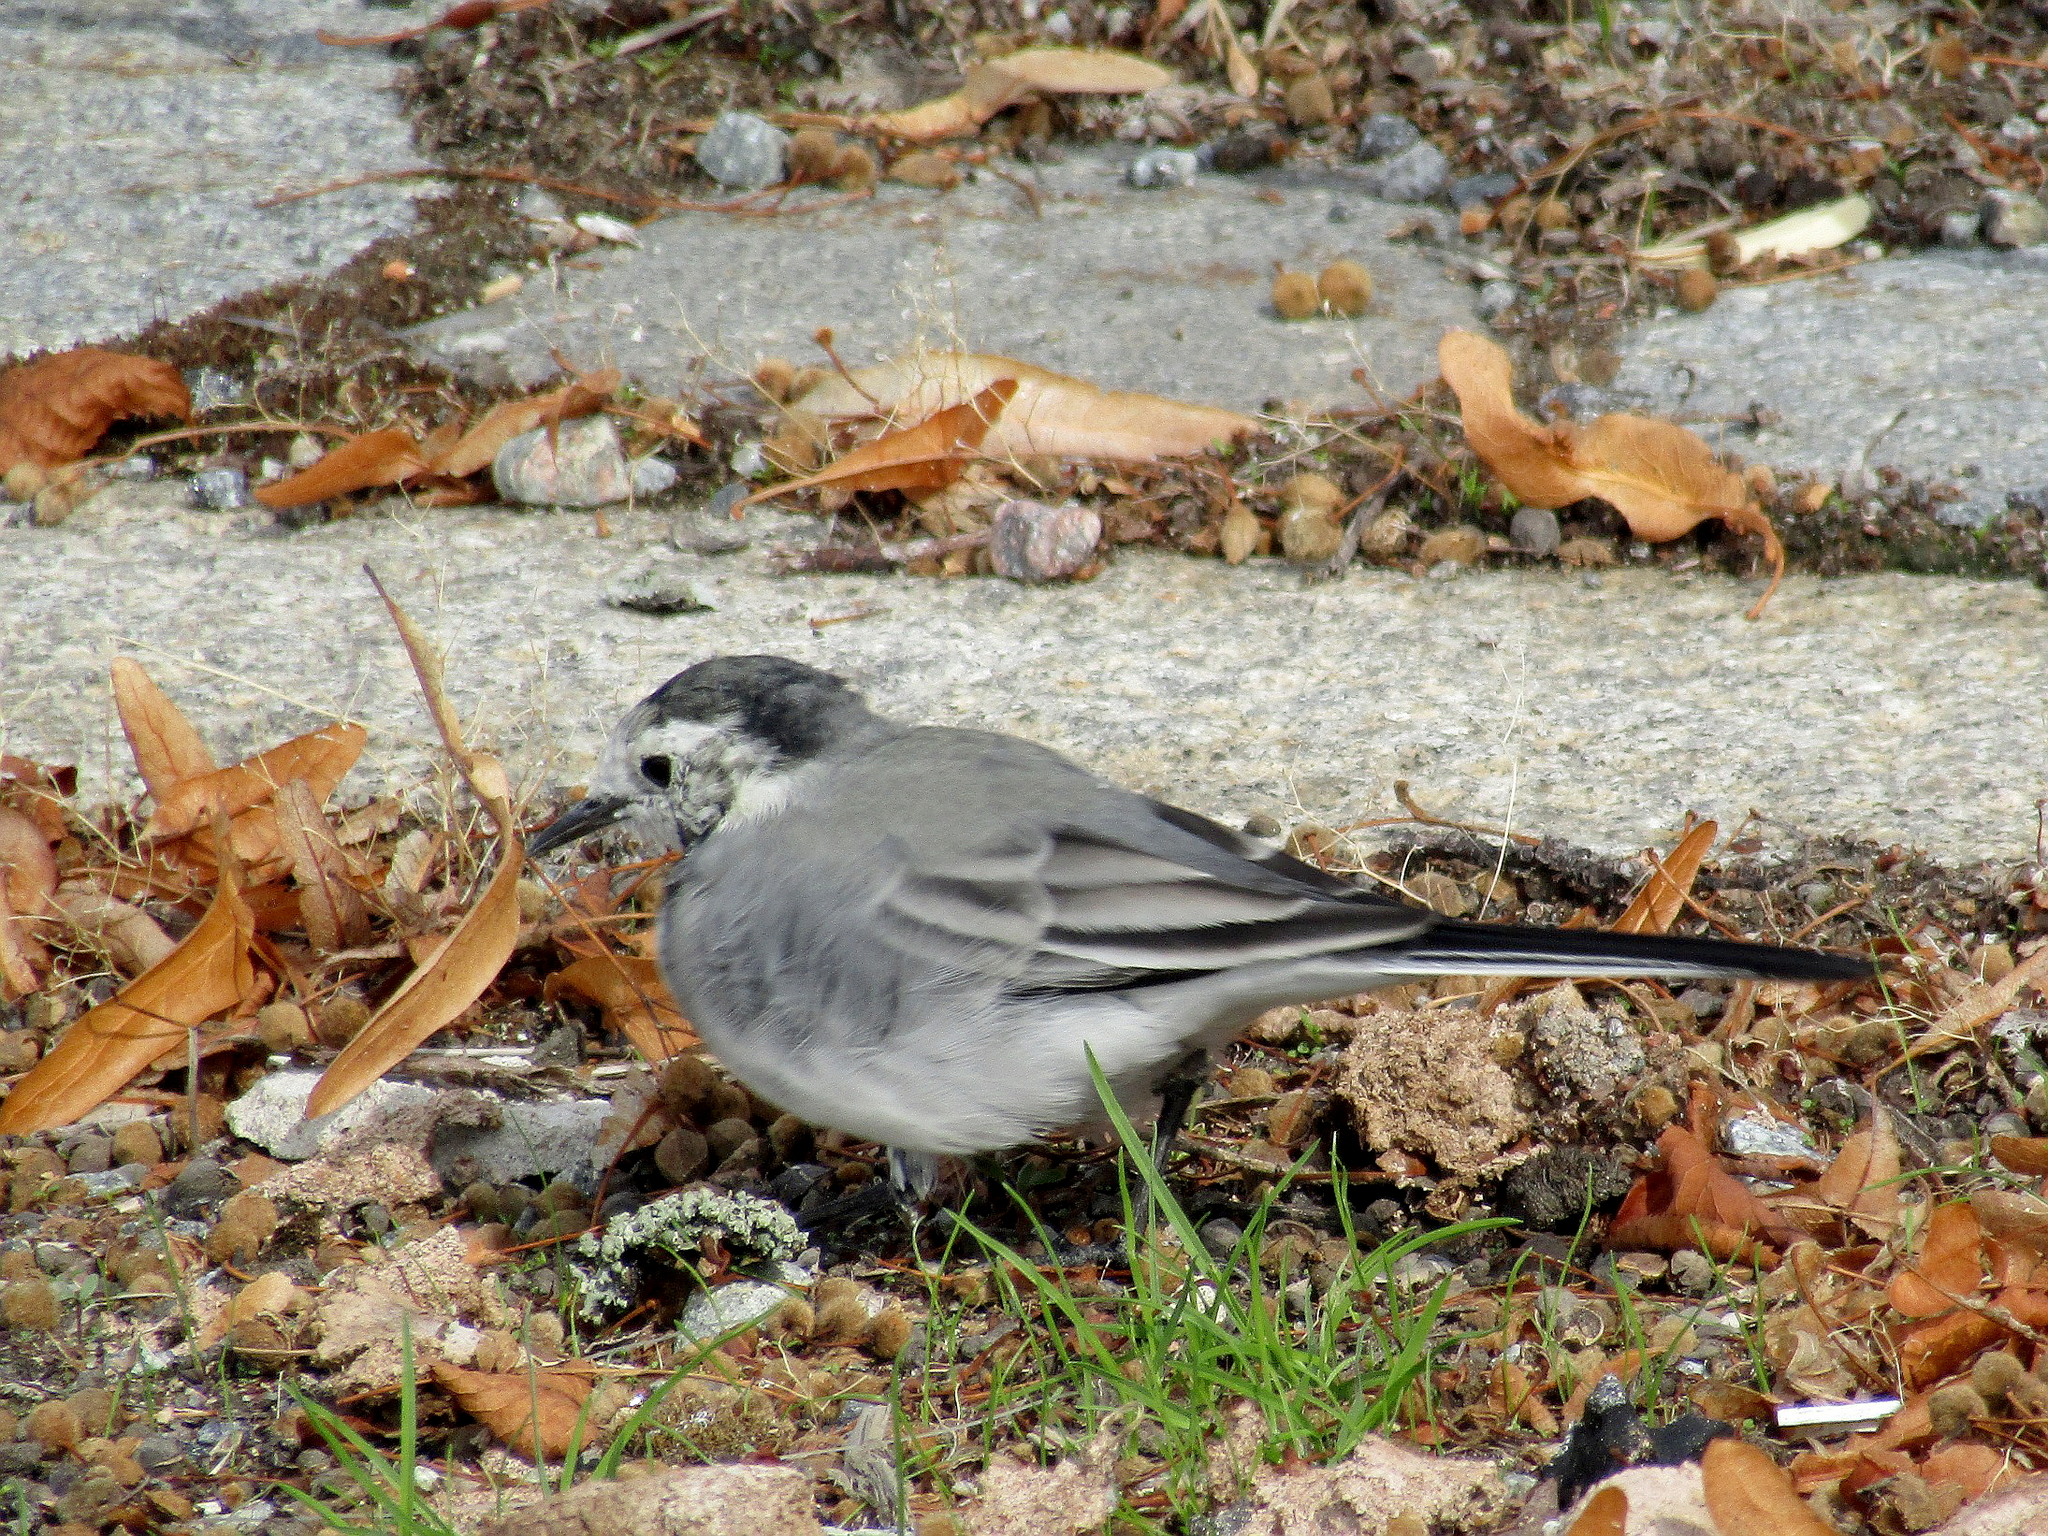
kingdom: Animalia
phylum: Chordata
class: Aves
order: Passeriformes
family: Motacillidae
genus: Motacilla
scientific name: Motacilla alba
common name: White wagtail
